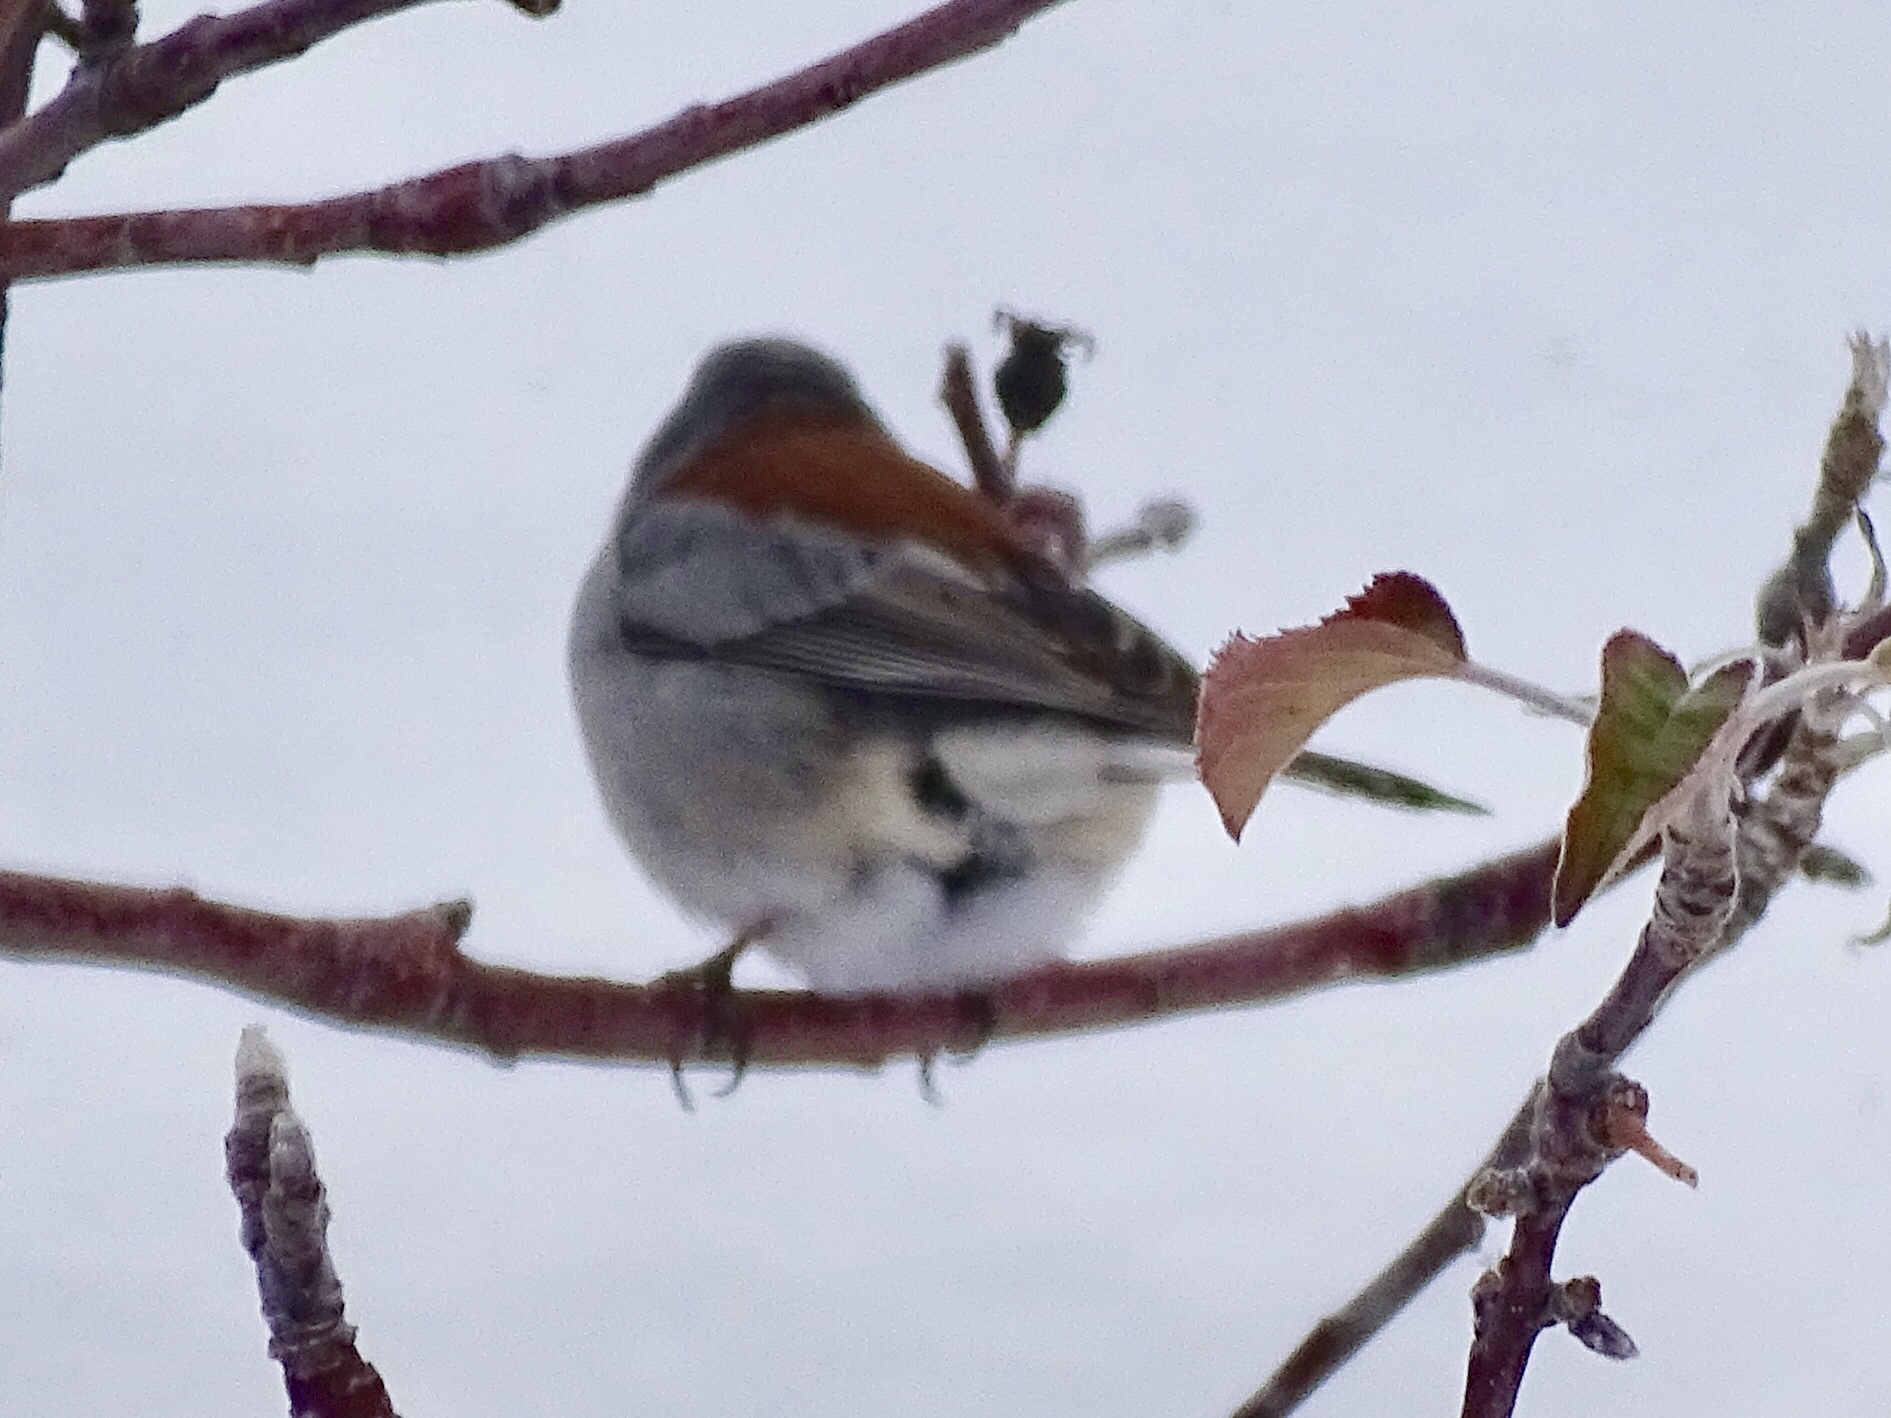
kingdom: Animalia
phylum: Chordata
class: Aves
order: Passeriformes
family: Passerellidae
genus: Junco
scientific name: Junco hyemalis
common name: Dark-eyed junco
